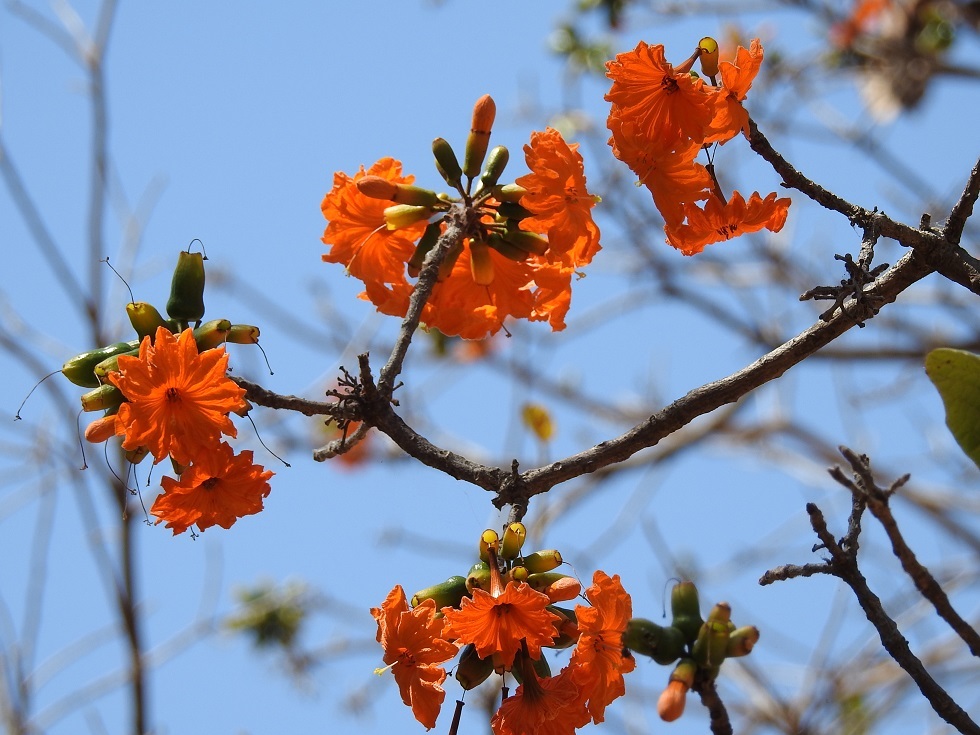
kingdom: Plantae
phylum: Tracheophyta
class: Magnoliopsida
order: Boraginales
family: Cordiaceae
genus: Cordia
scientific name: Cordia dodecandra
